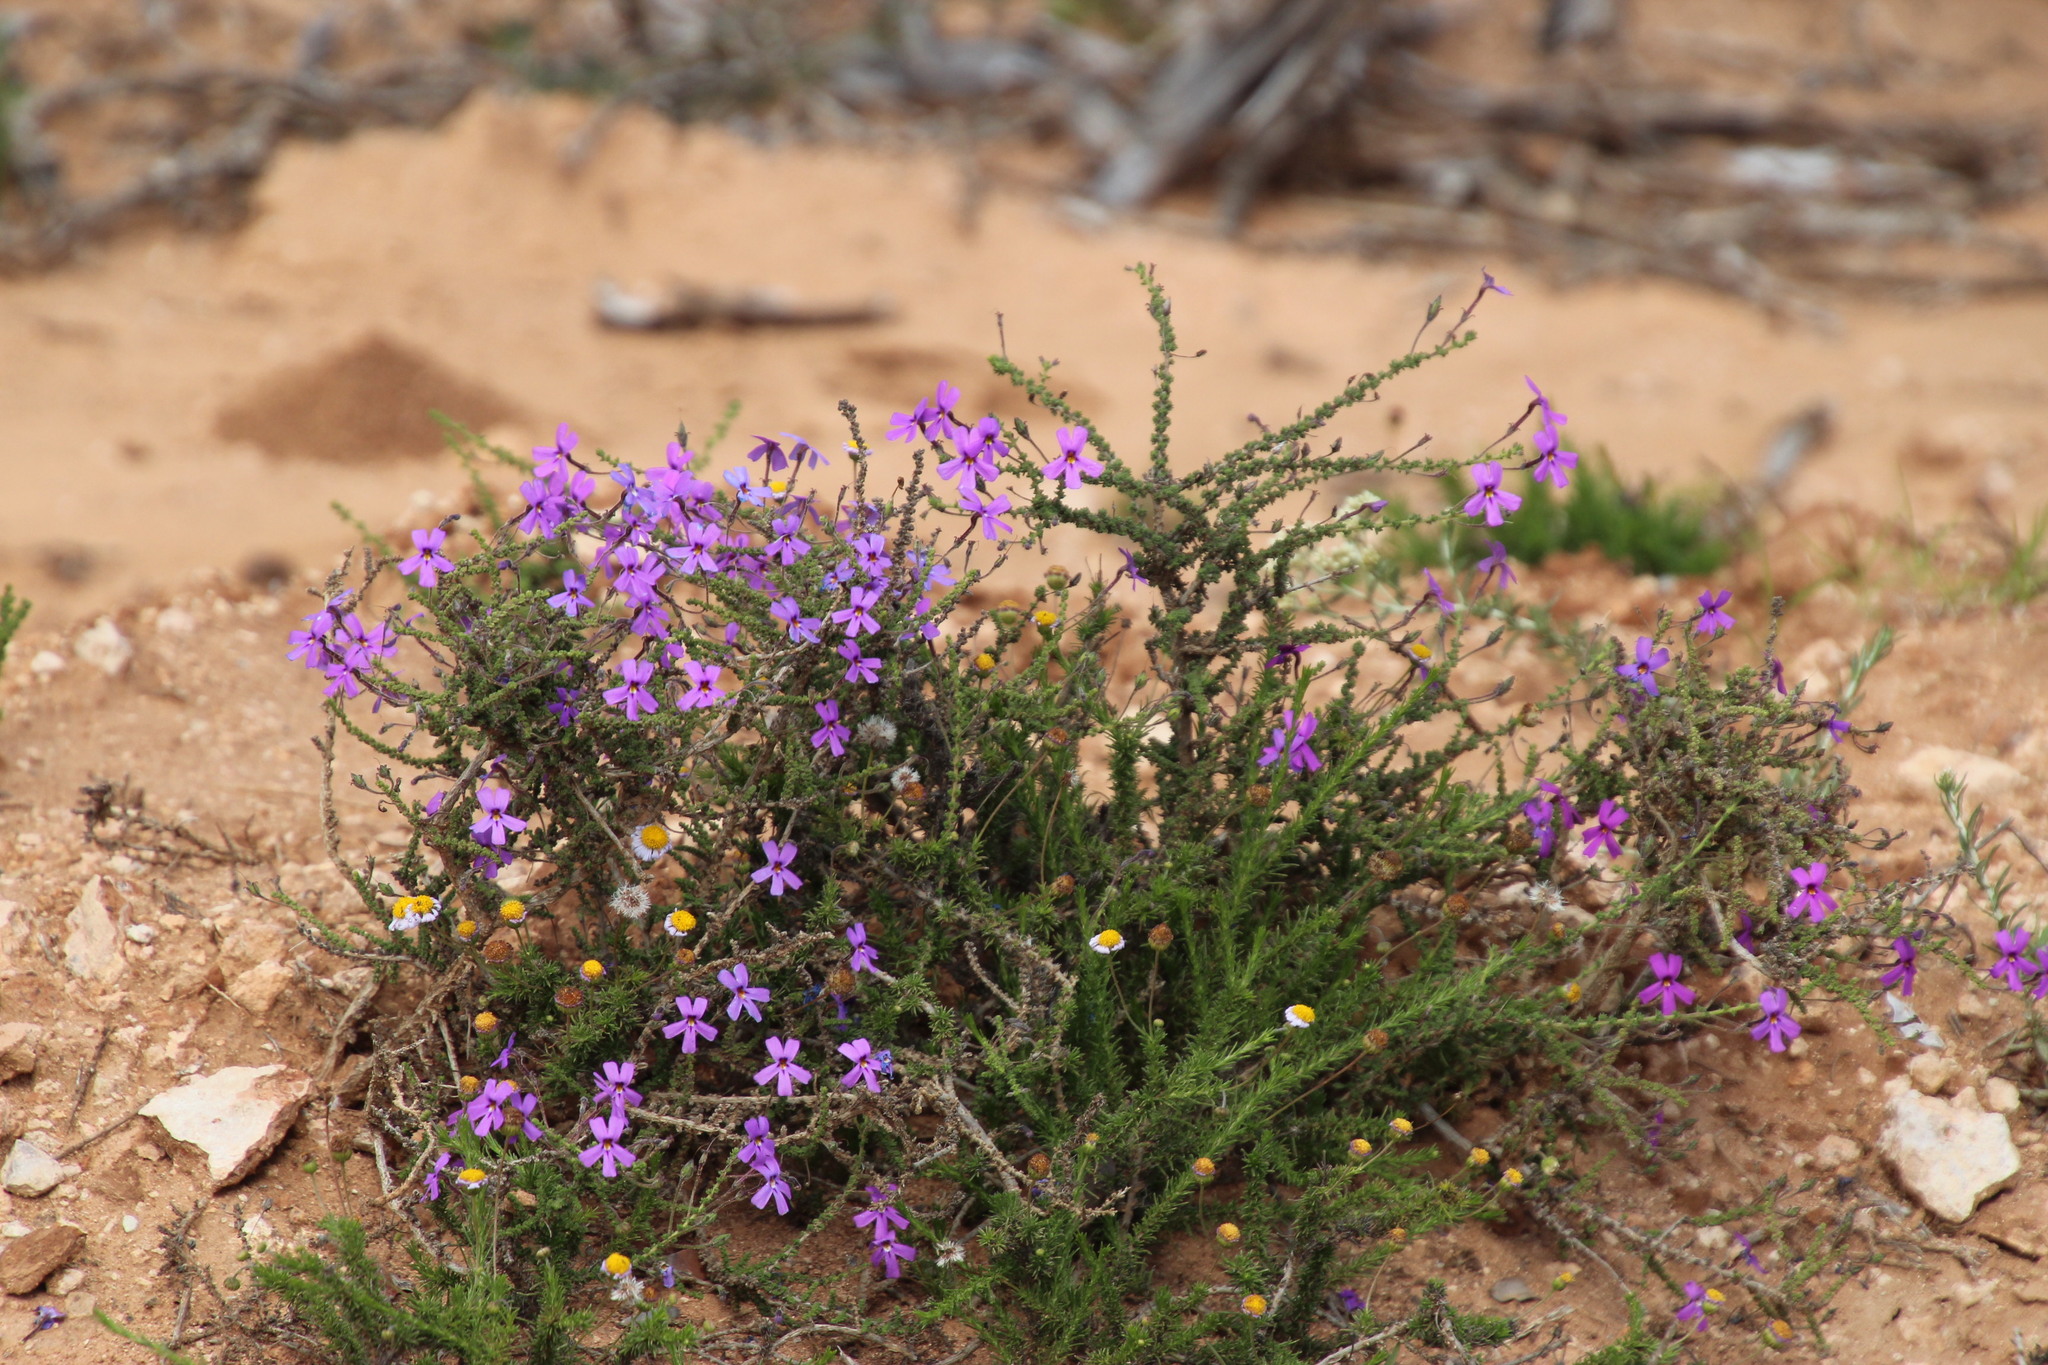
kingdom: Plantae
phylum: Tracheophyta
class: Magnoliopsida
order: Lamiales
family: Scrophulariaceae
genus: Jamesbrittenia
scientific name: Jamesbrittenia microphylla
